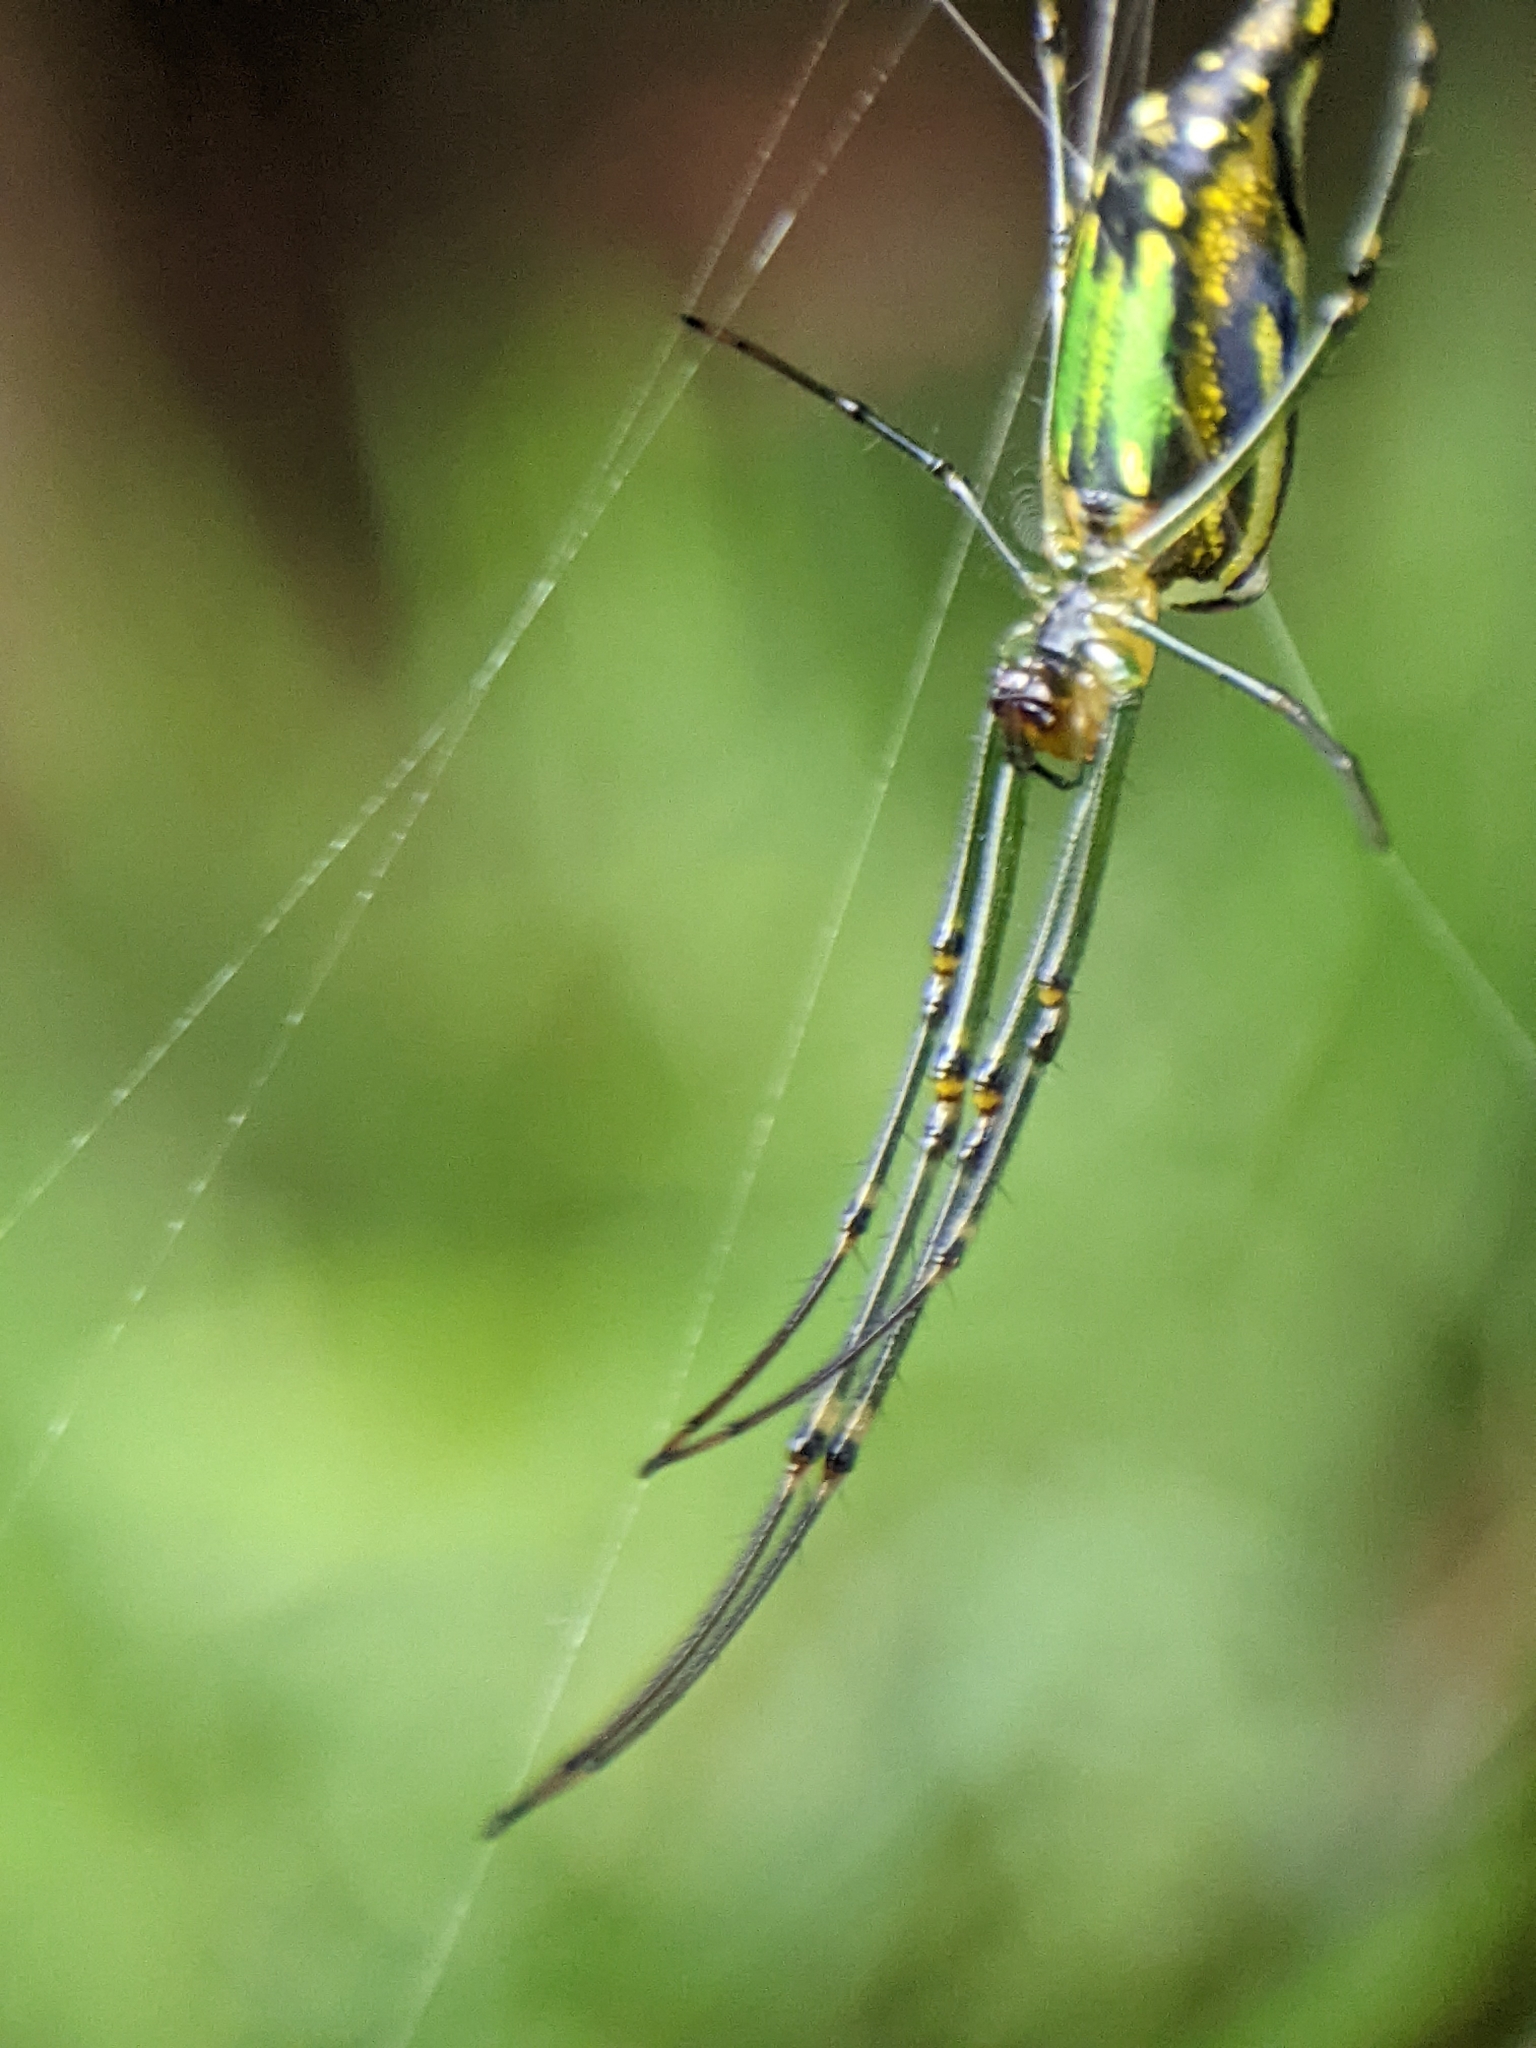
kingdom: Animalia
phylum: Arthropoda
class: Arachnida
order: Araneae
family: Tetragnathidae
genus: Leucauge
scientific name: Leucauge decorata
